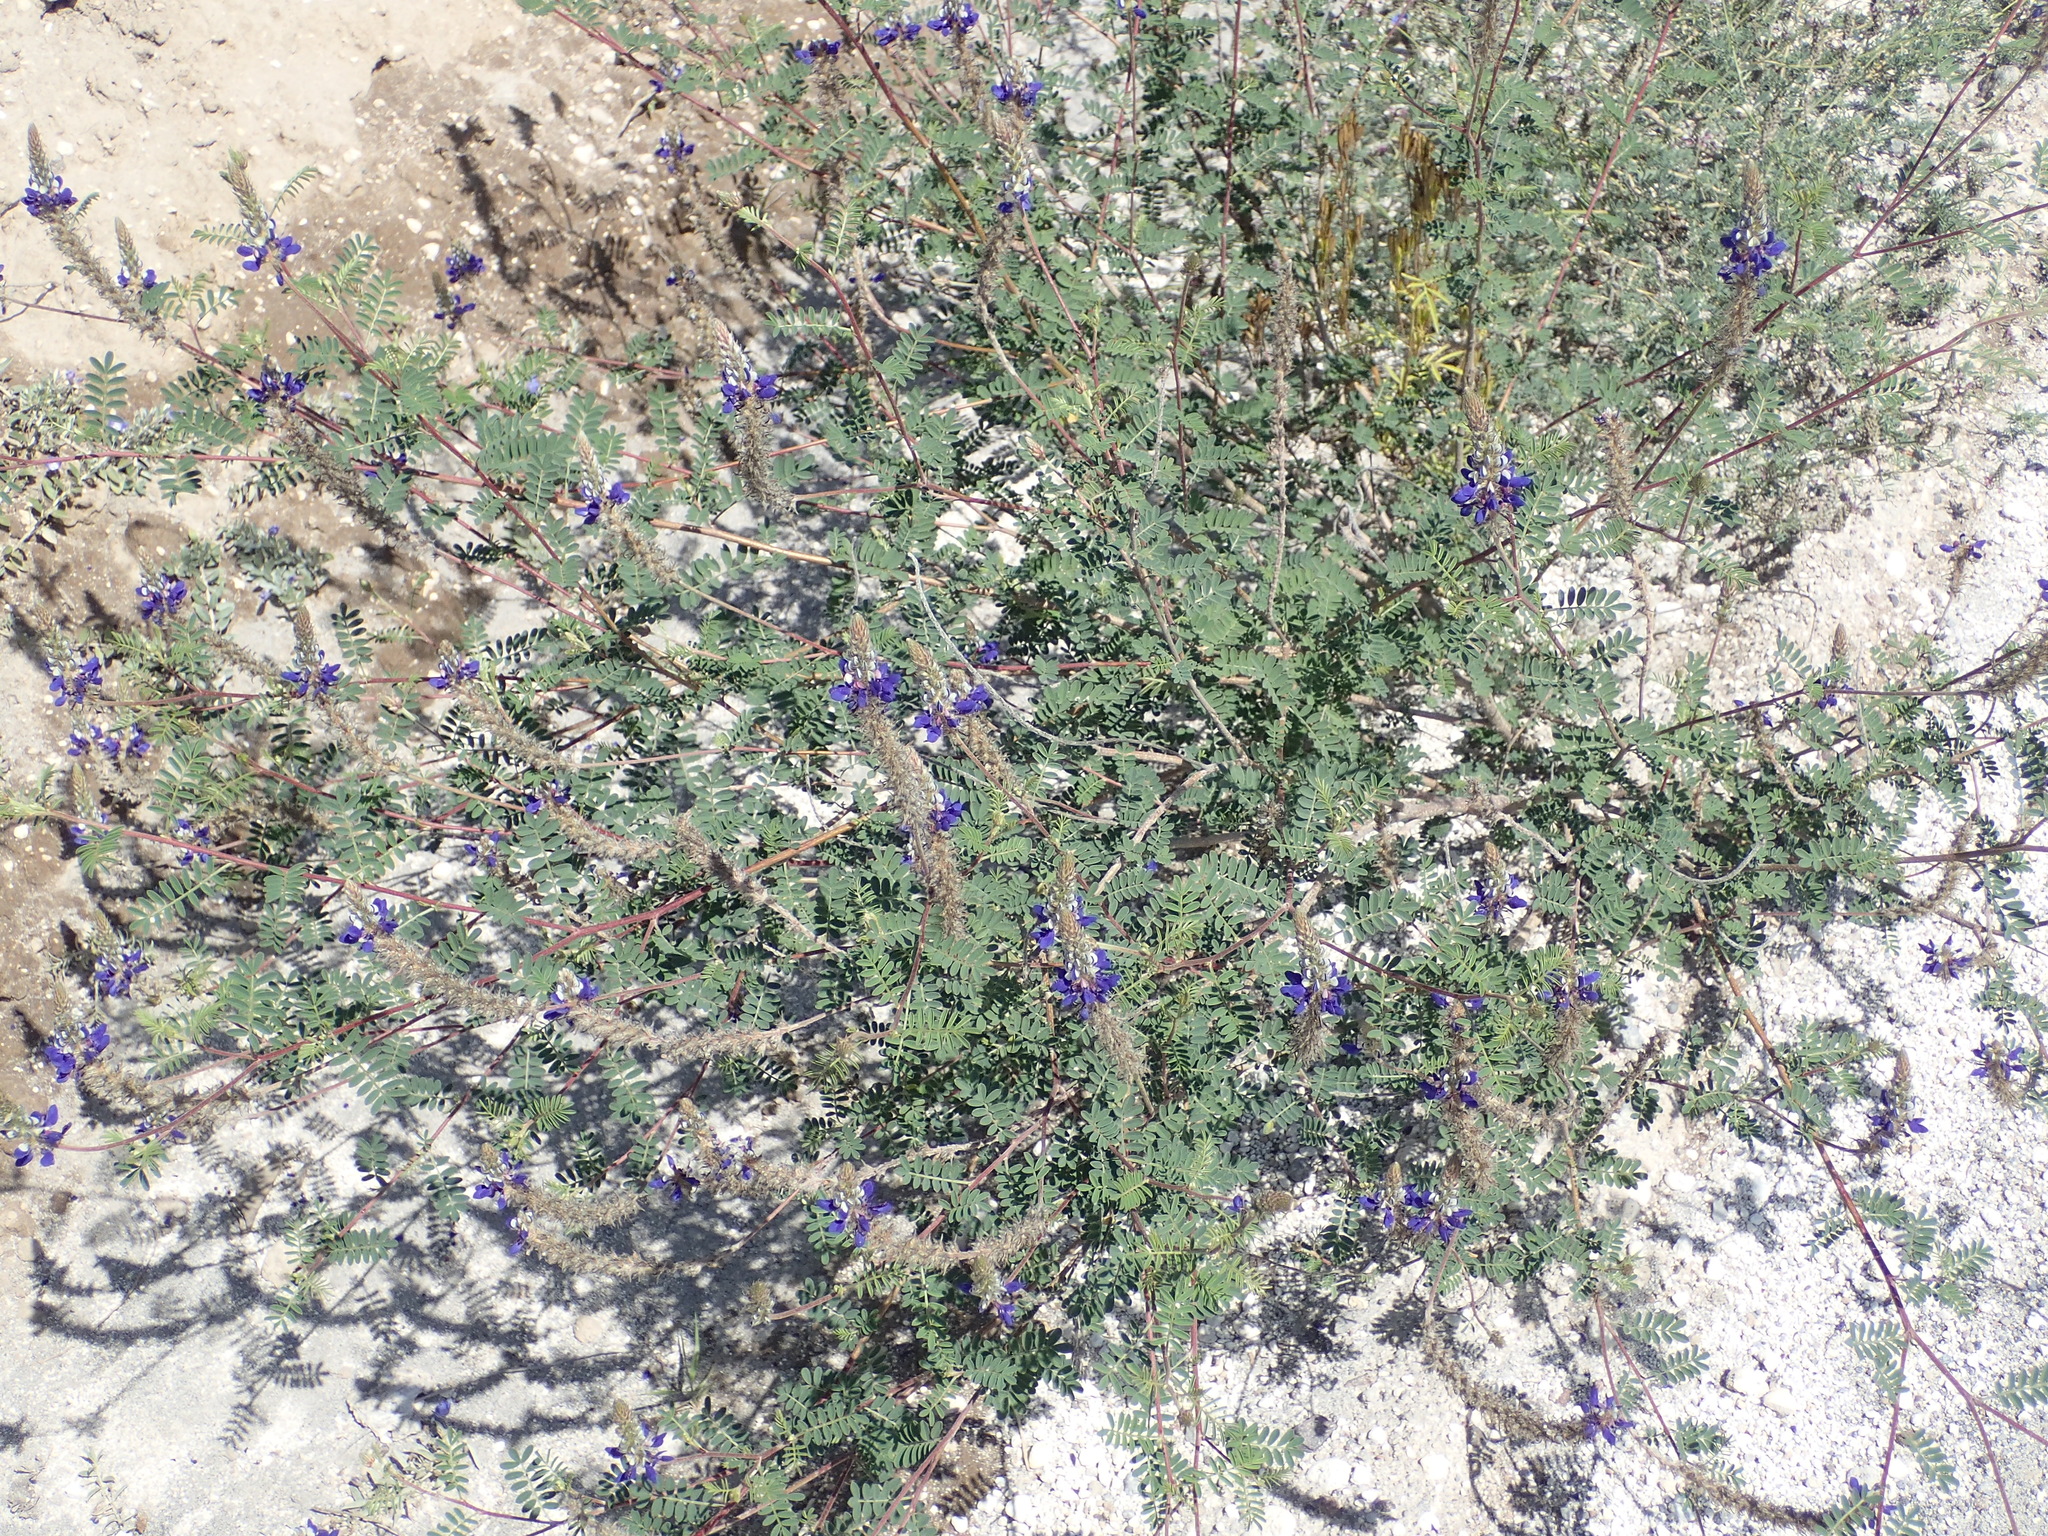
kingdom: Plantae
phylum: Tracheophyta
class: Magnoliopsida
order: Fabales
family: Fabaceae
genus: Dalea
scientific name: Dalea coerulea
